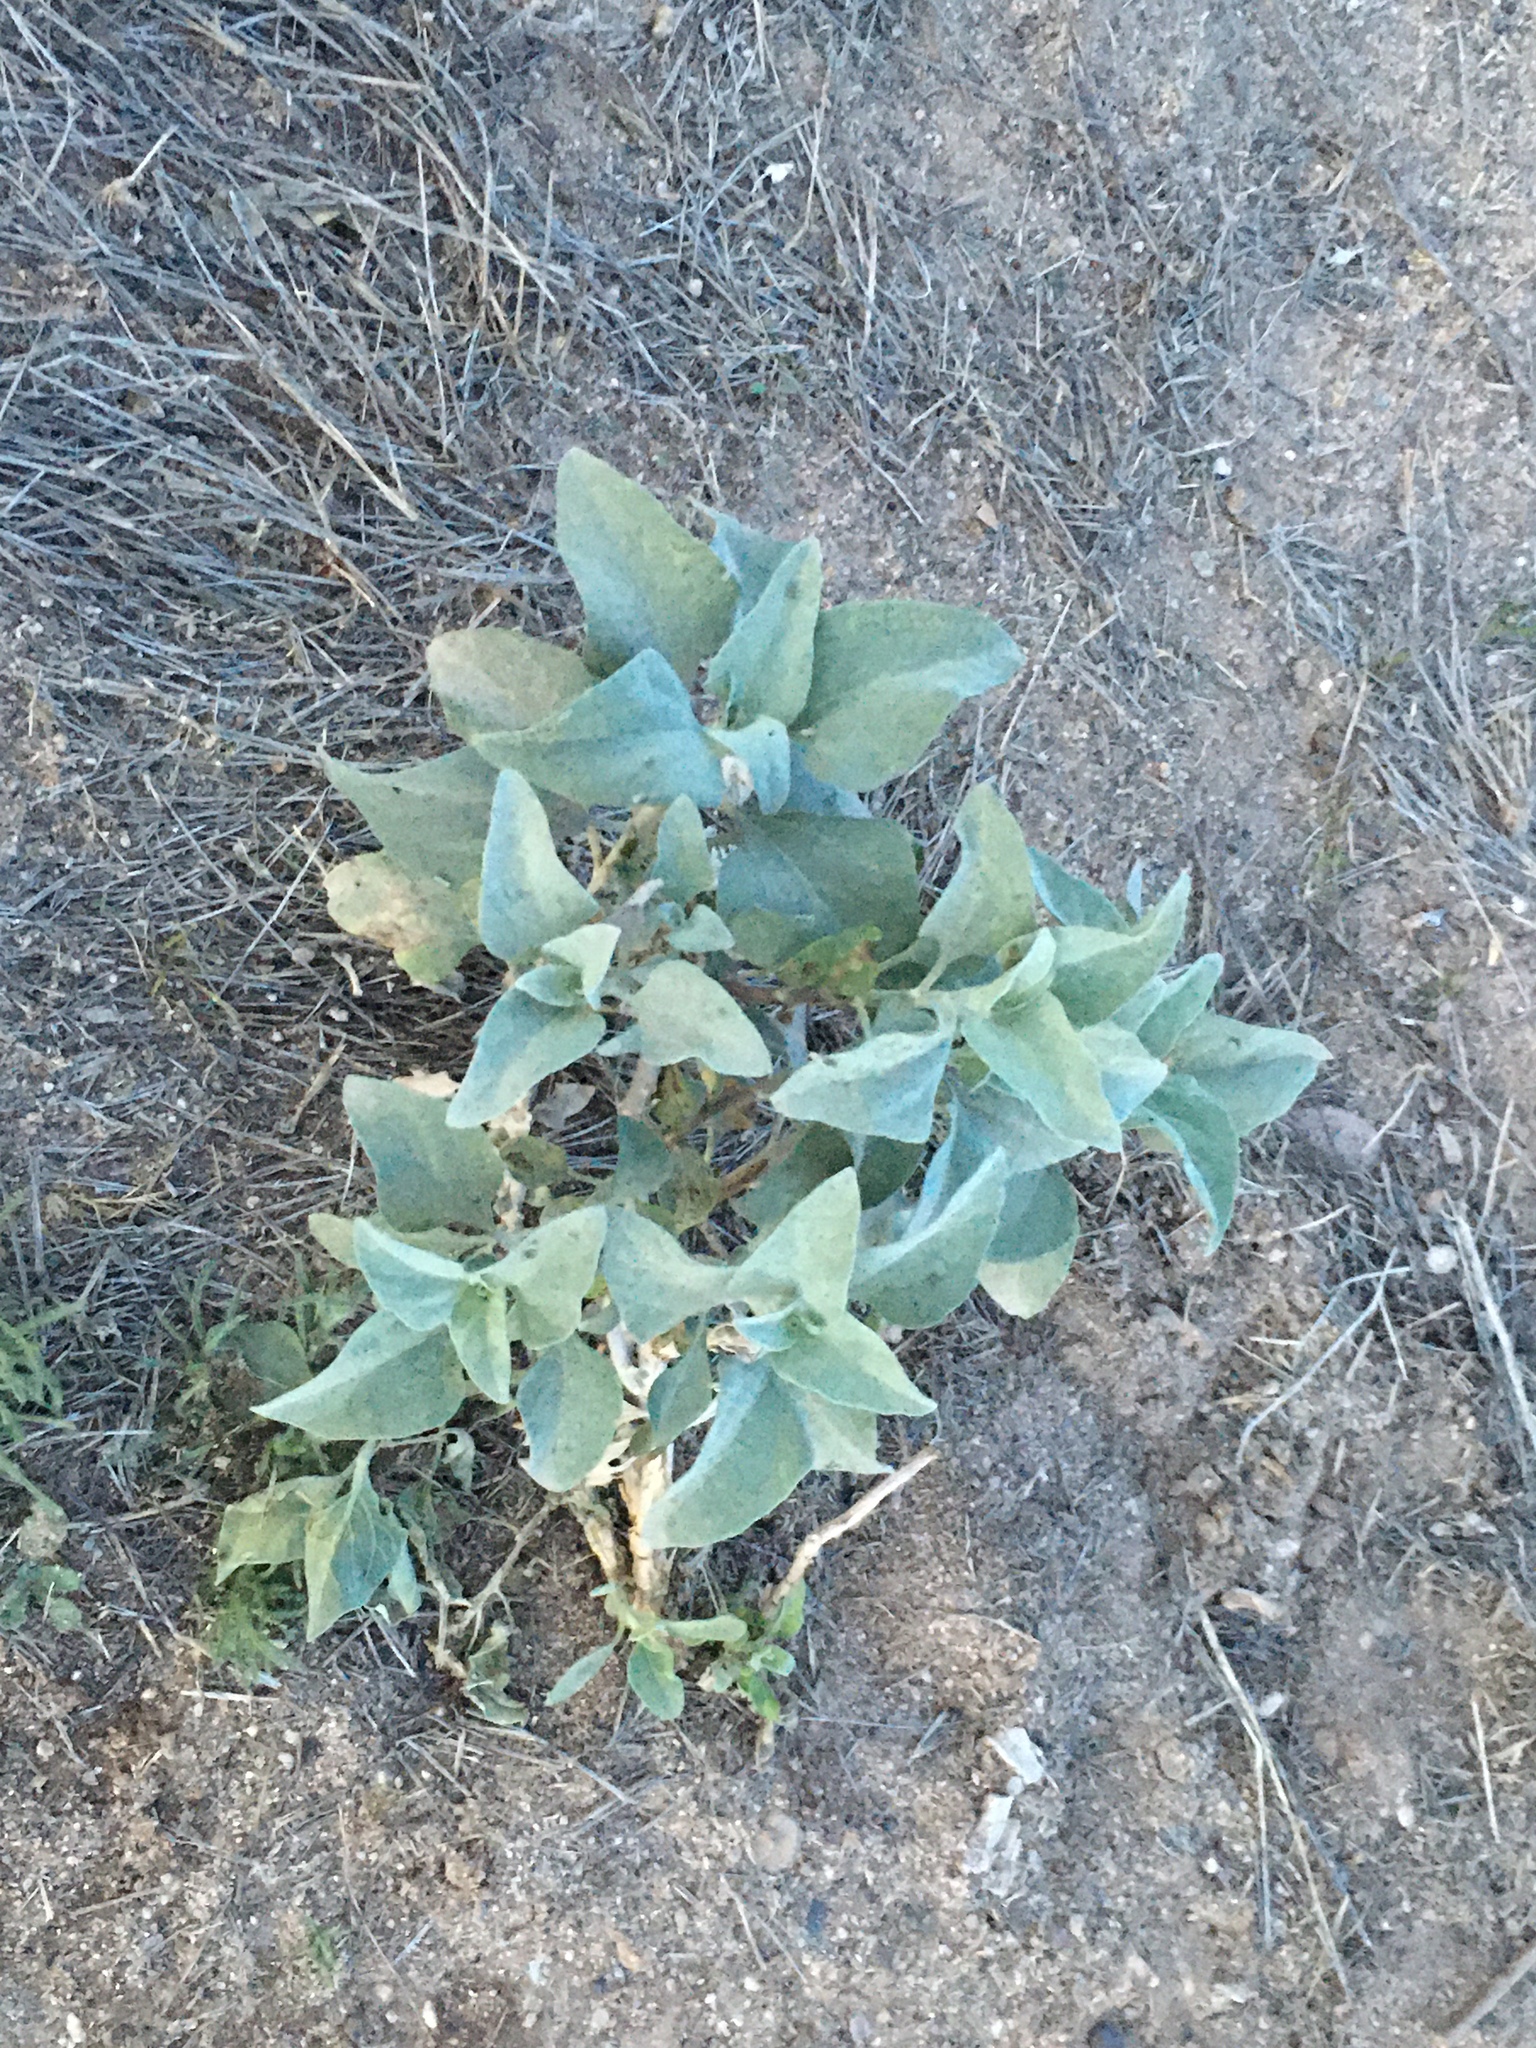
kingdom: Plantae
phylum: Tracheophyta
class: Magnoliopsida
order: Asterales
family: Asteraceae
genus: Encelia
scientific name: Encelia farinosa
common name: Brittlebush
